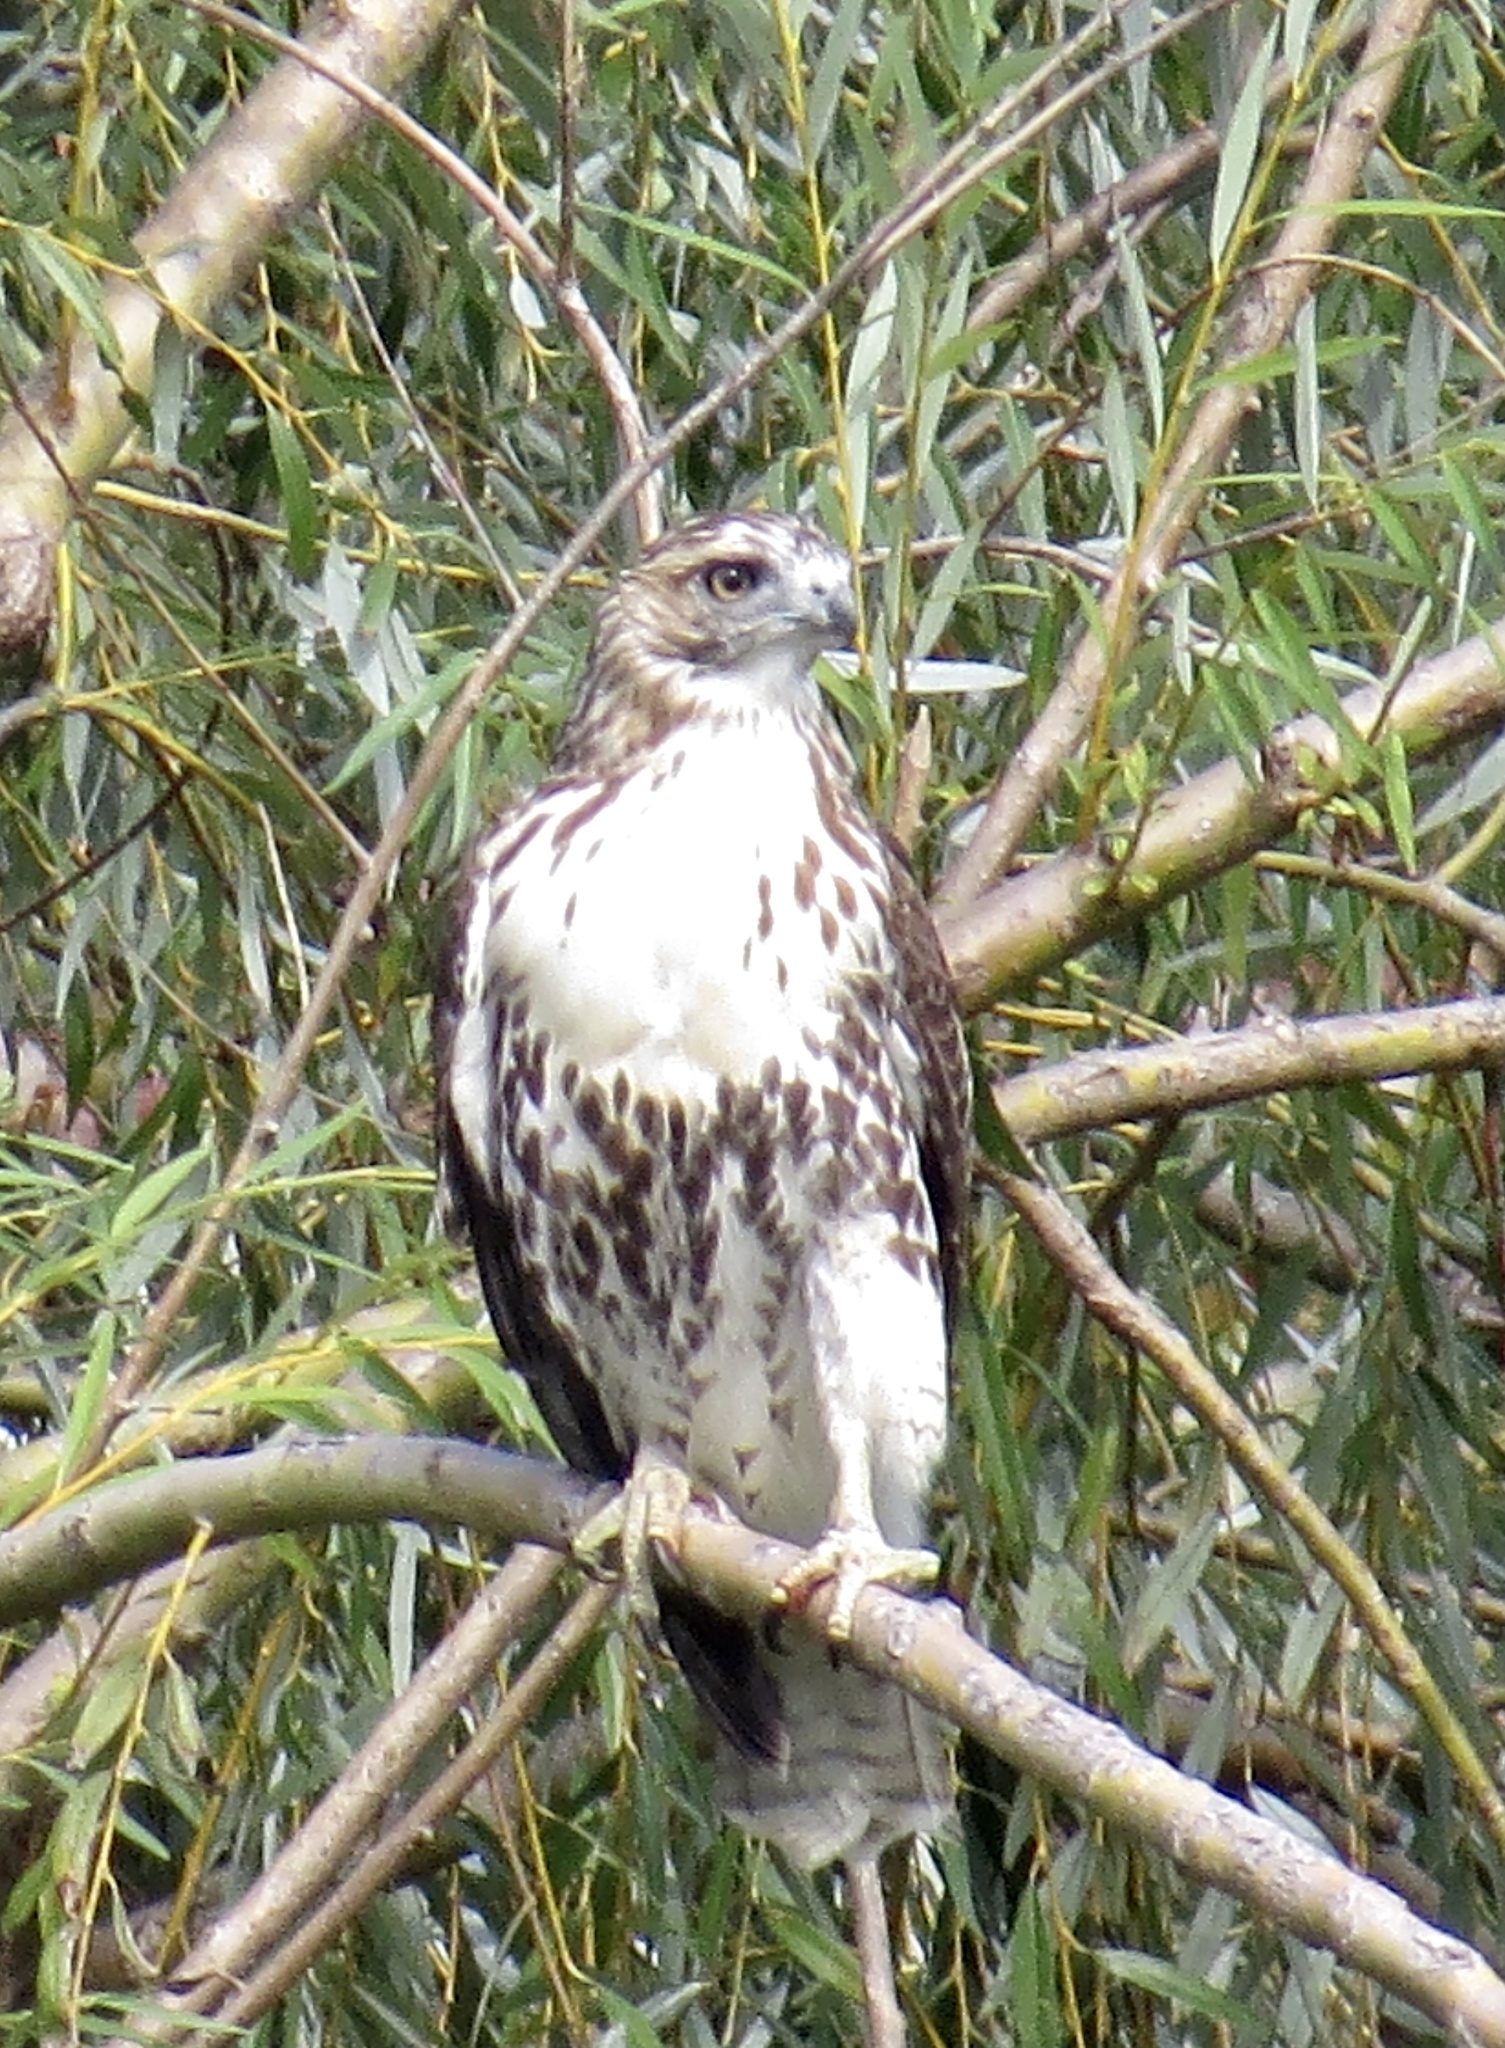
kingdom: Animalia
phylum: Chordata
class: Aves
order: Accipitriformes
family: Accipitridae
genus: Buteo
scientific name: Buteo jamaicensis
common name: Red-tailed hawk
